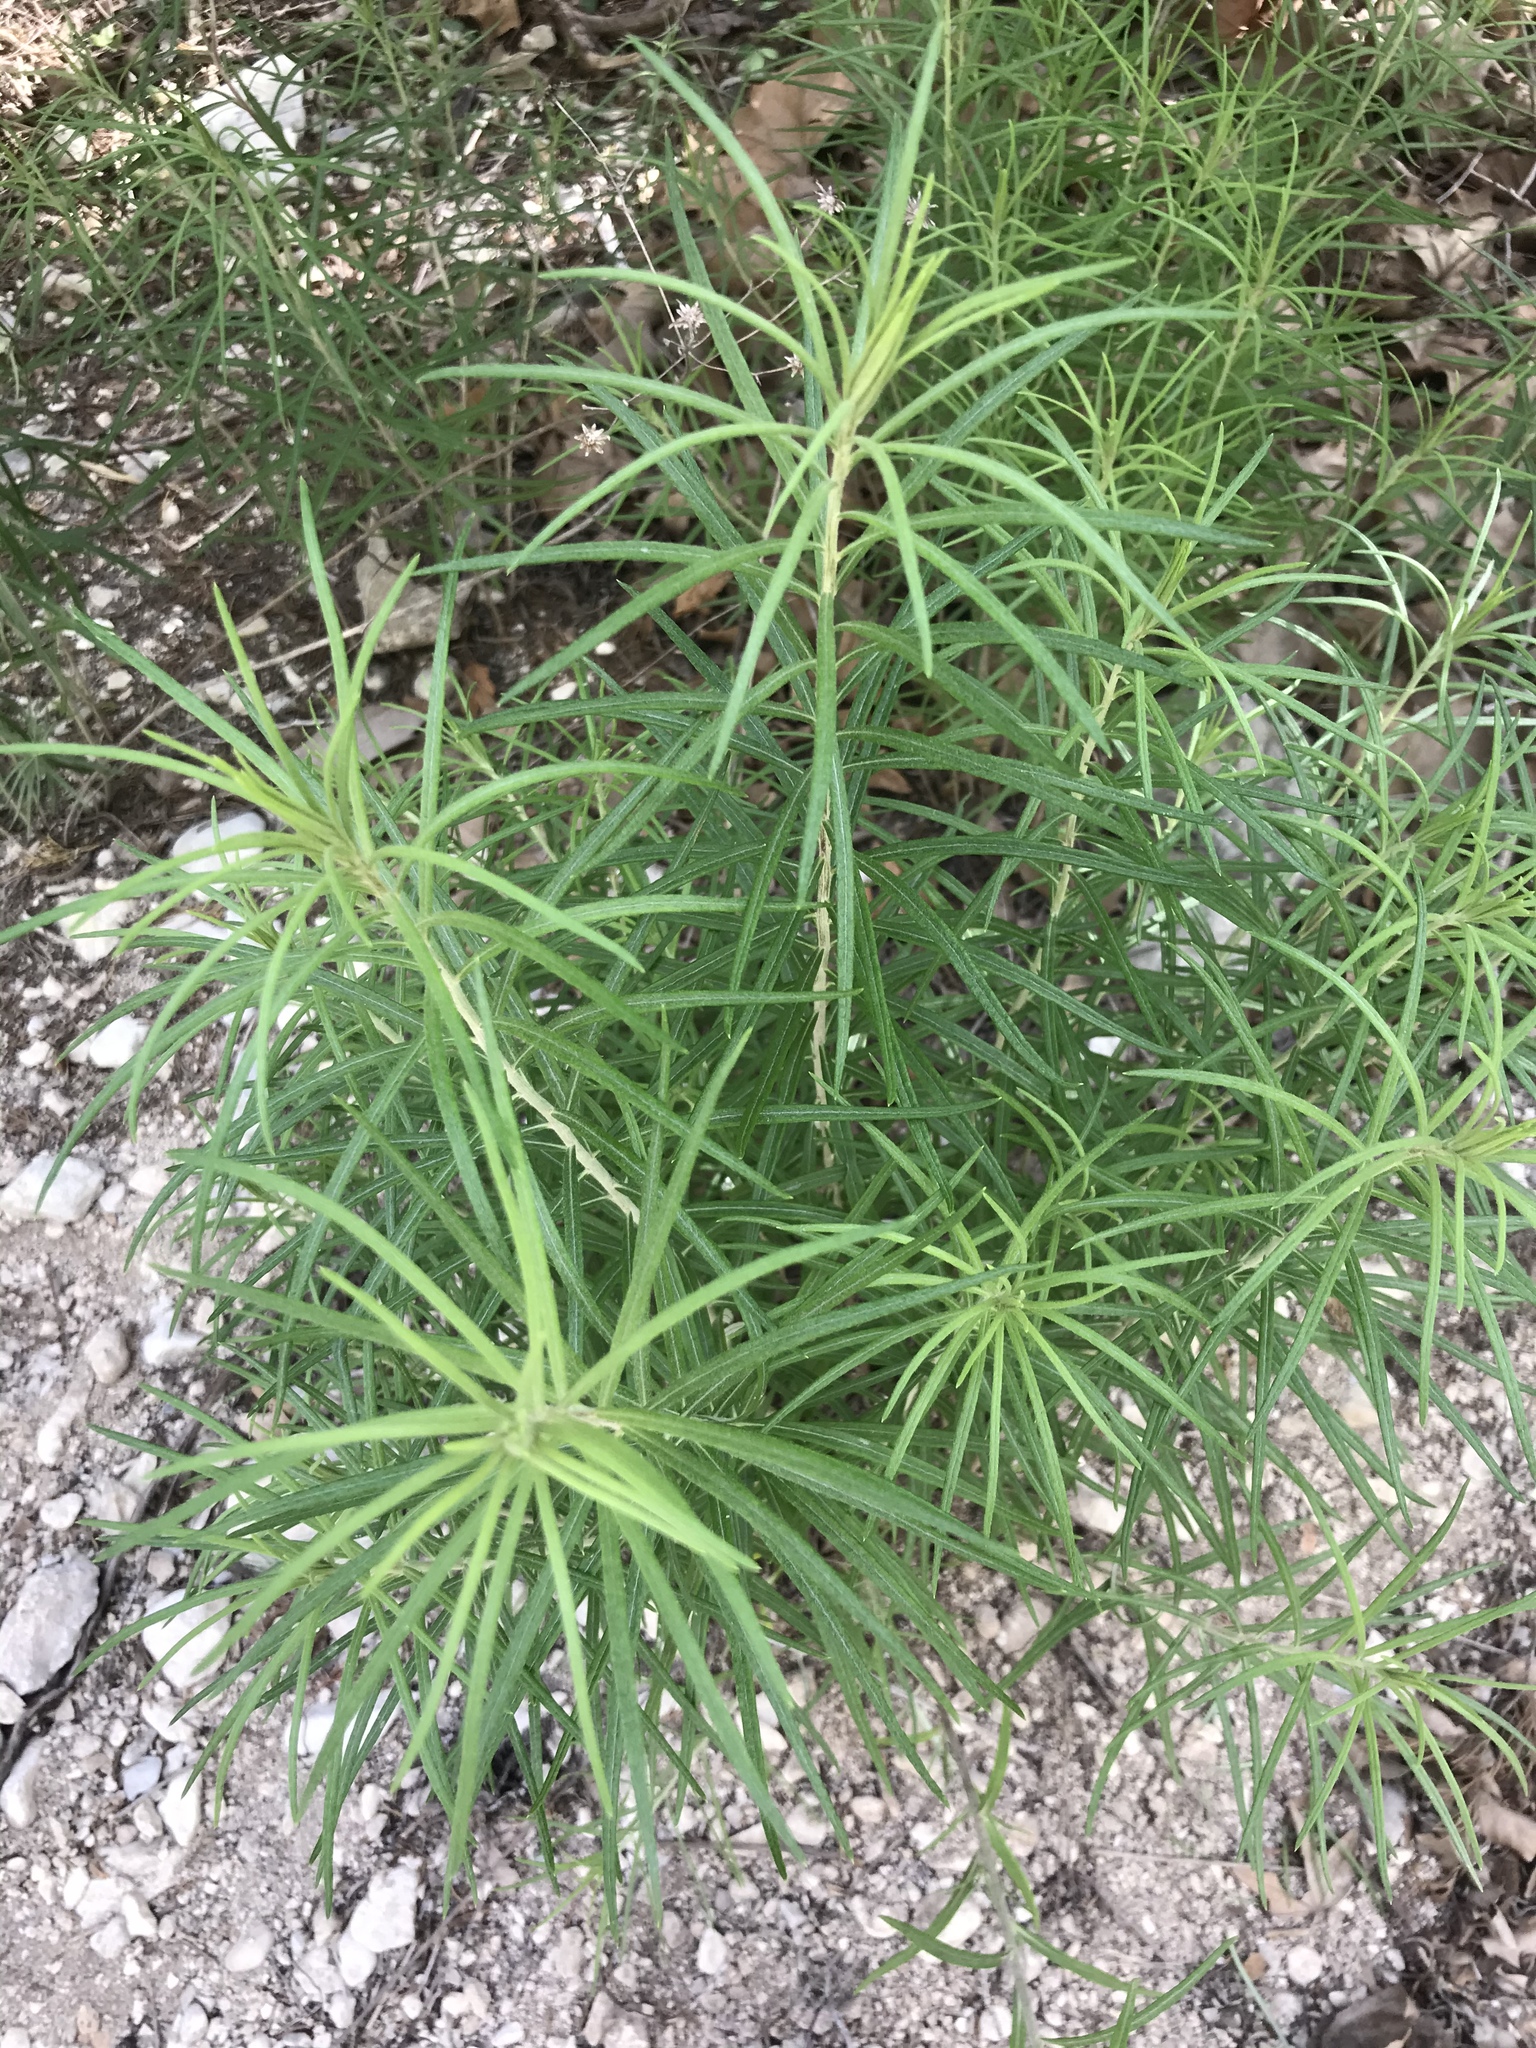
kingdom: Plantae
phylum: Tracheophyta
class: Magnoliopsida
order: Asterales
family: Asteraceae
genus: Vernonia
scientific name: Vernonia lindheimeri
